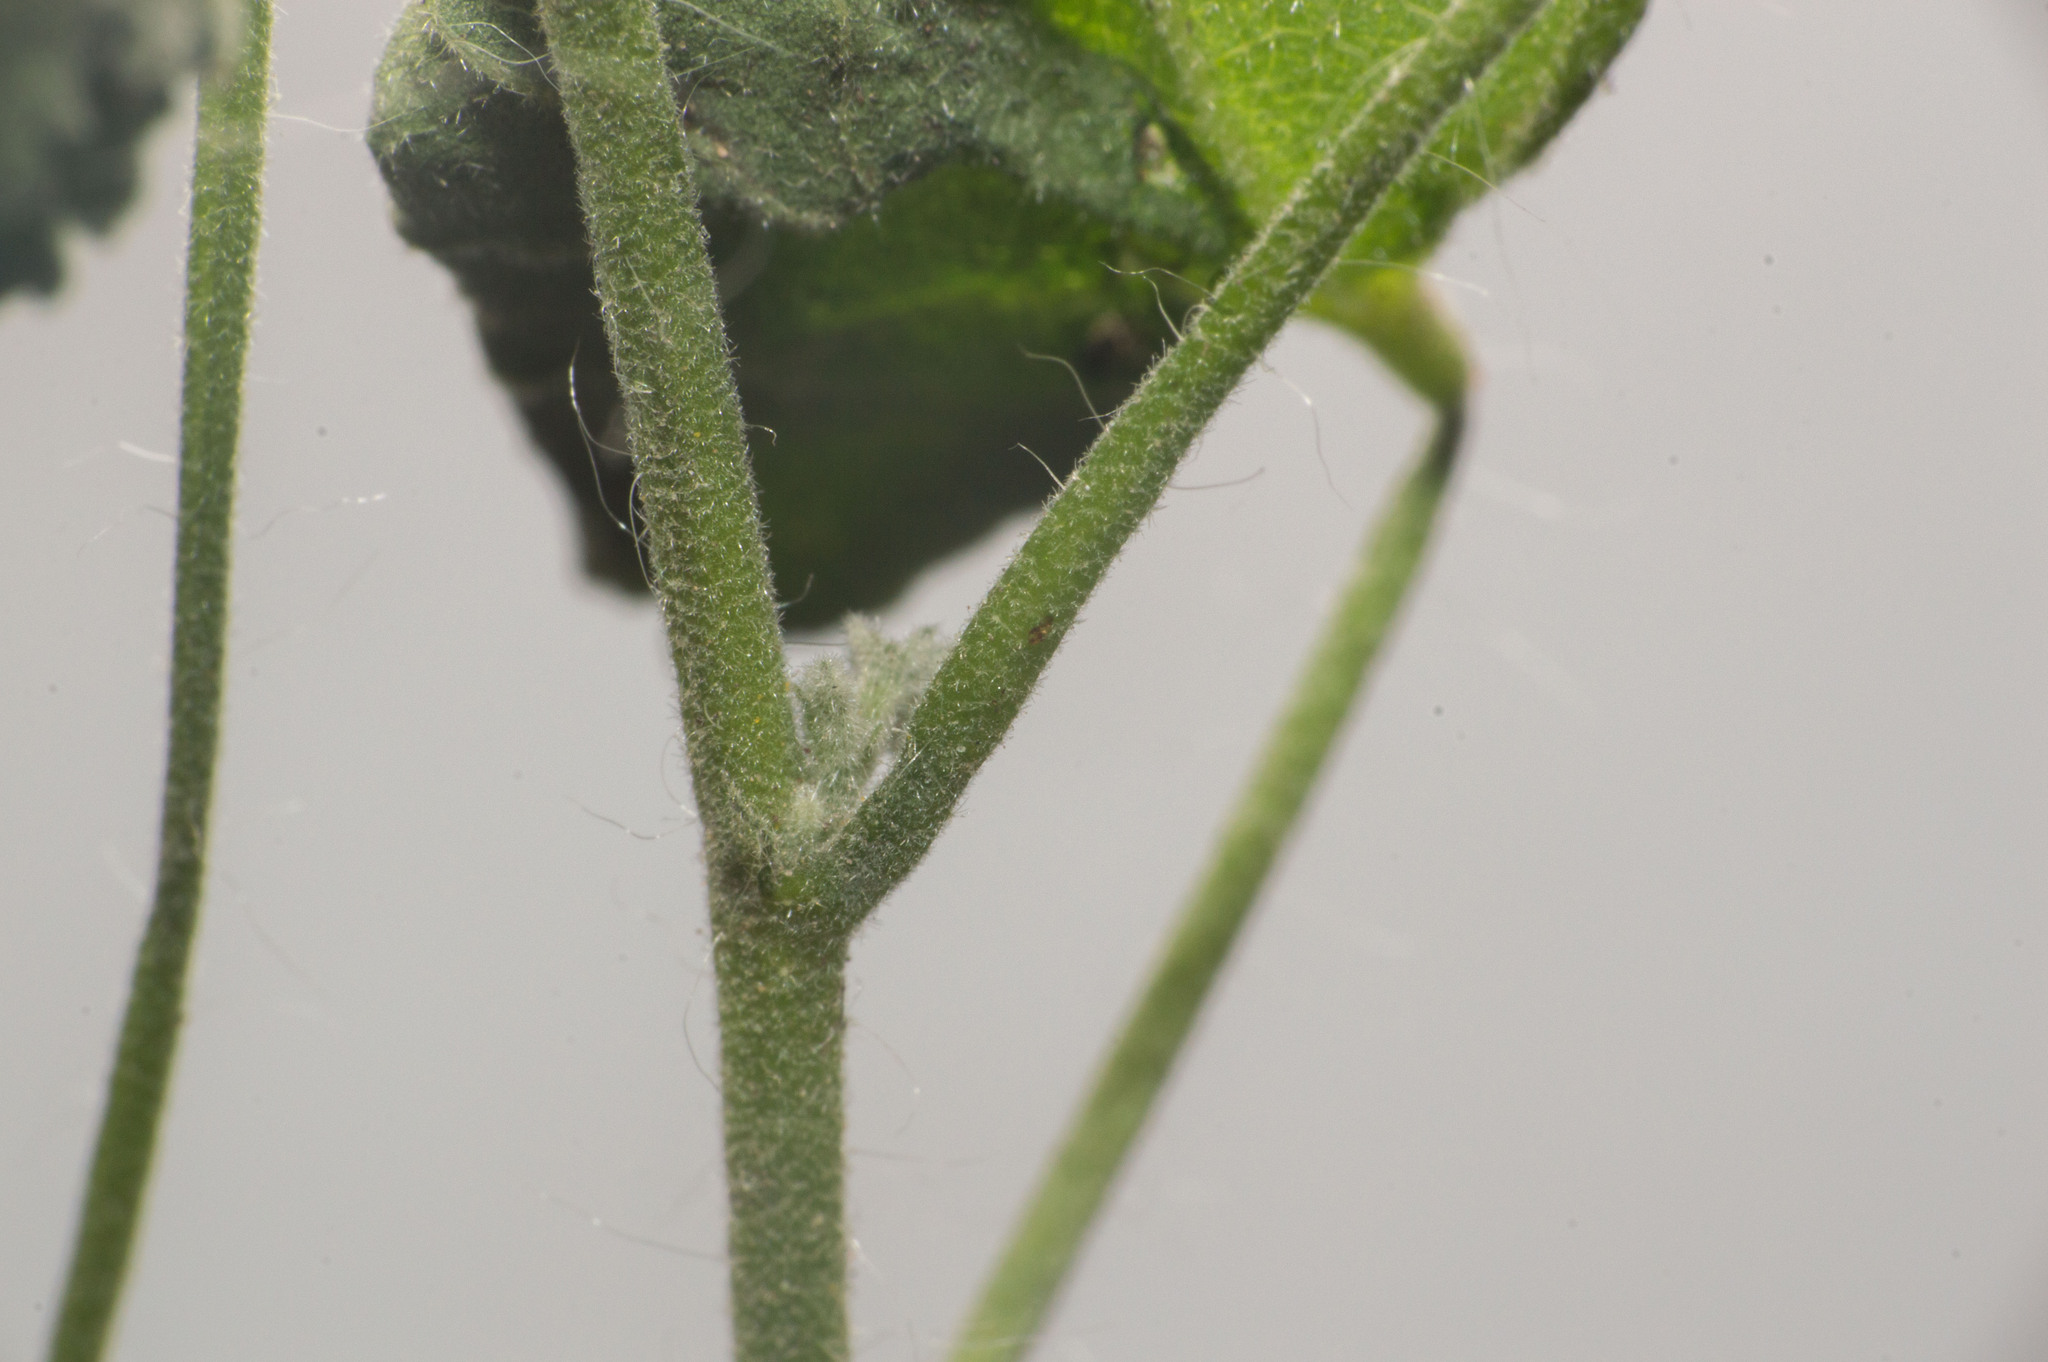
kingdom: Plantae
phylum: Tracheophyta
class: Magnoliopsida
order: Malvales
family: Malvaceae
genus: Pseudabutilon
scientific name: Pseudabutilon virgatum
